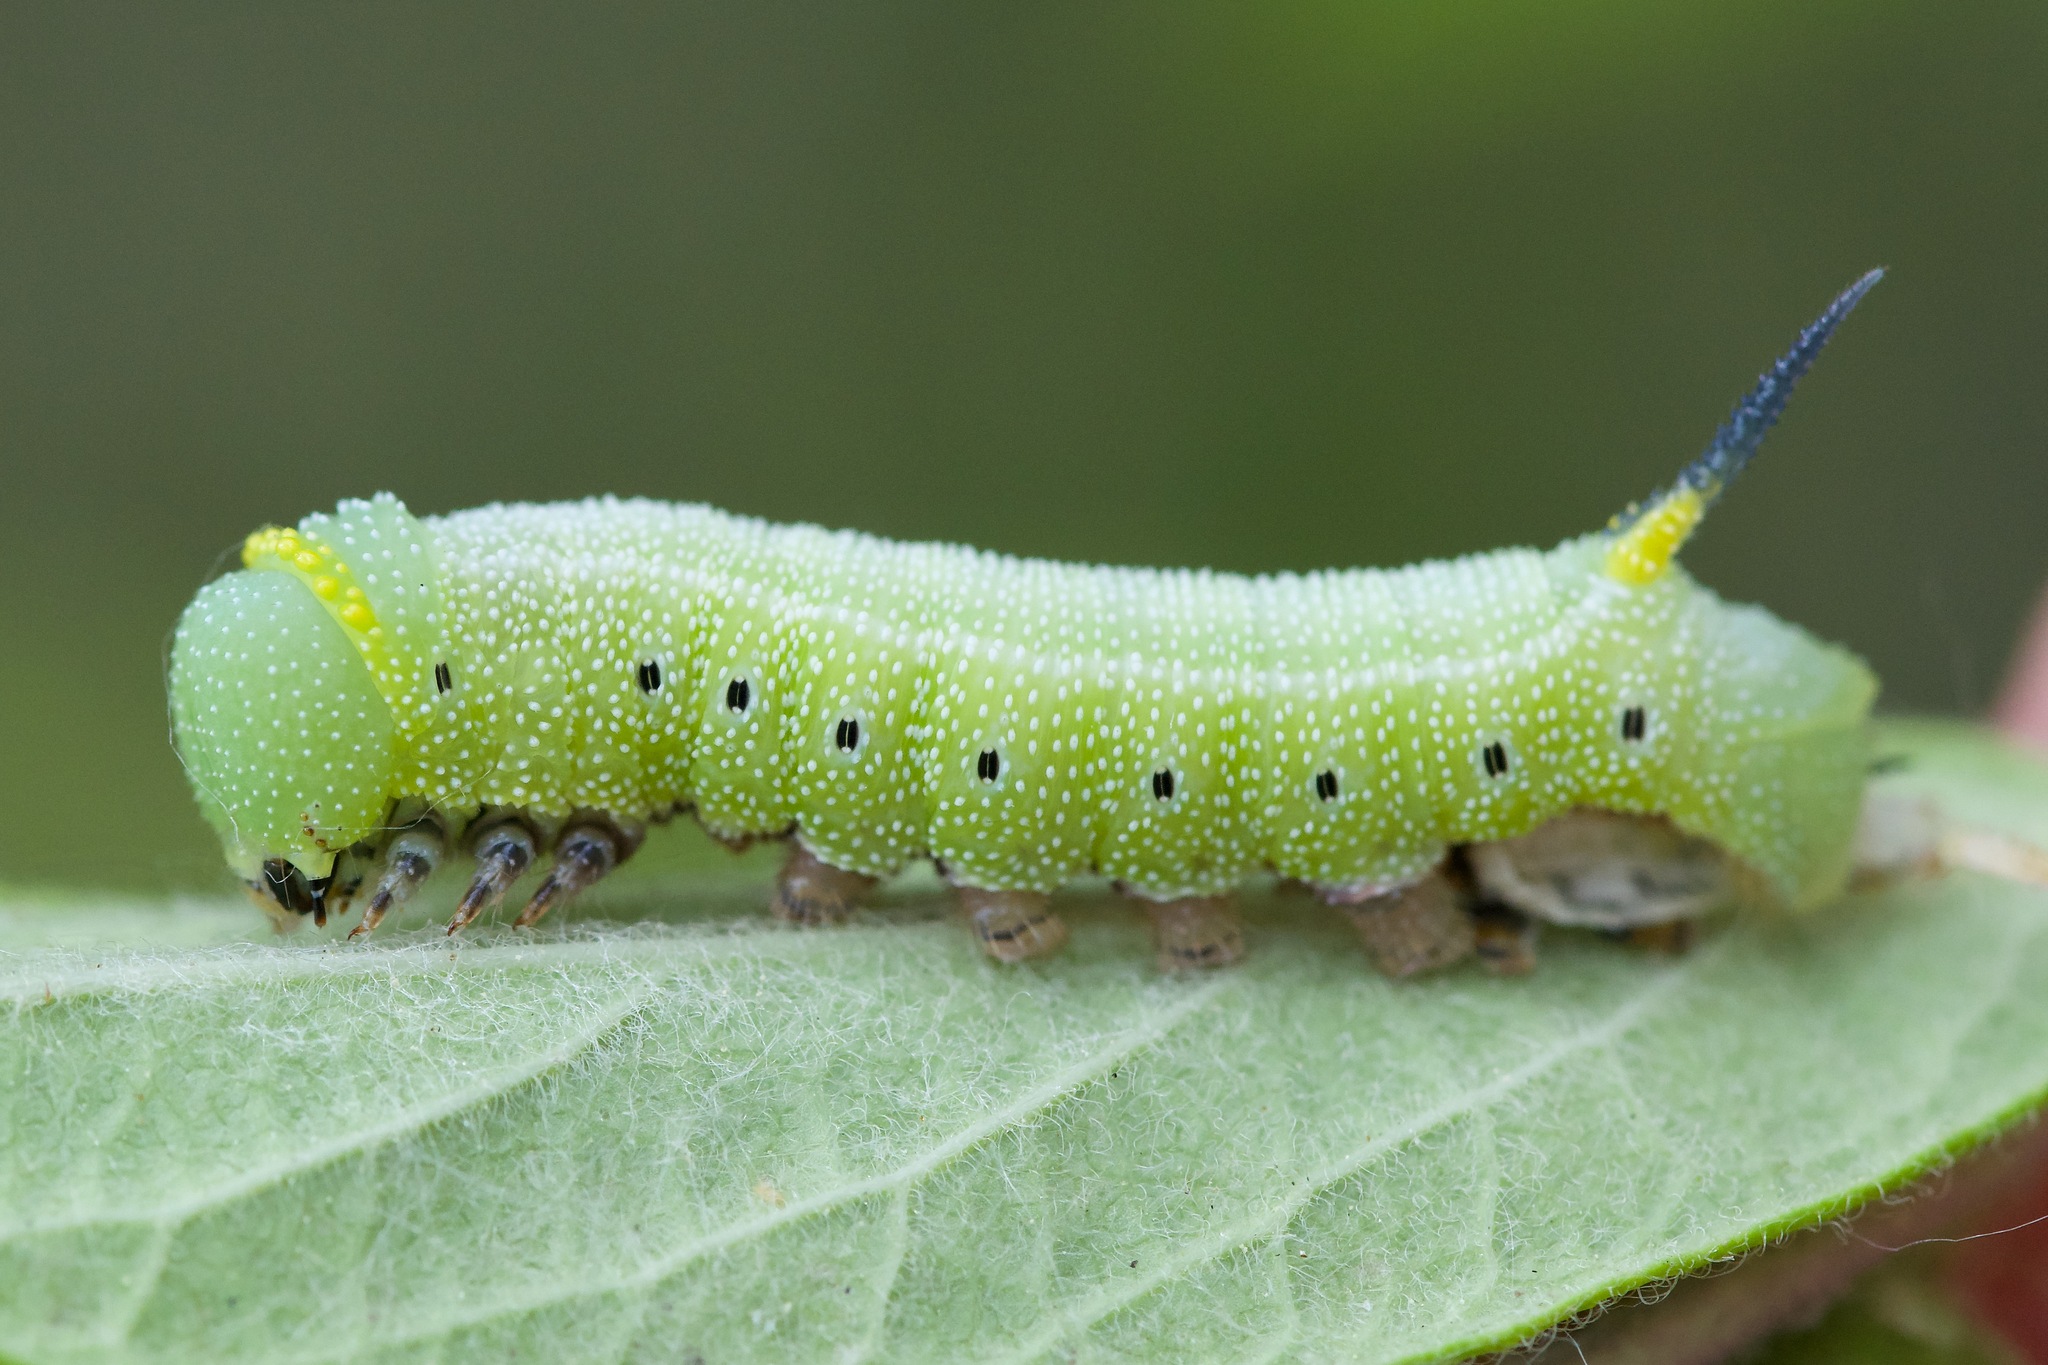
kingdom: Animalia
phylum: Arthropoda
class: Insecta
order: Lepidoptera
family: Sphingidae
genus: Hemaris
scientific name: Hemaris diffinis
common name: Bumblebee moth
